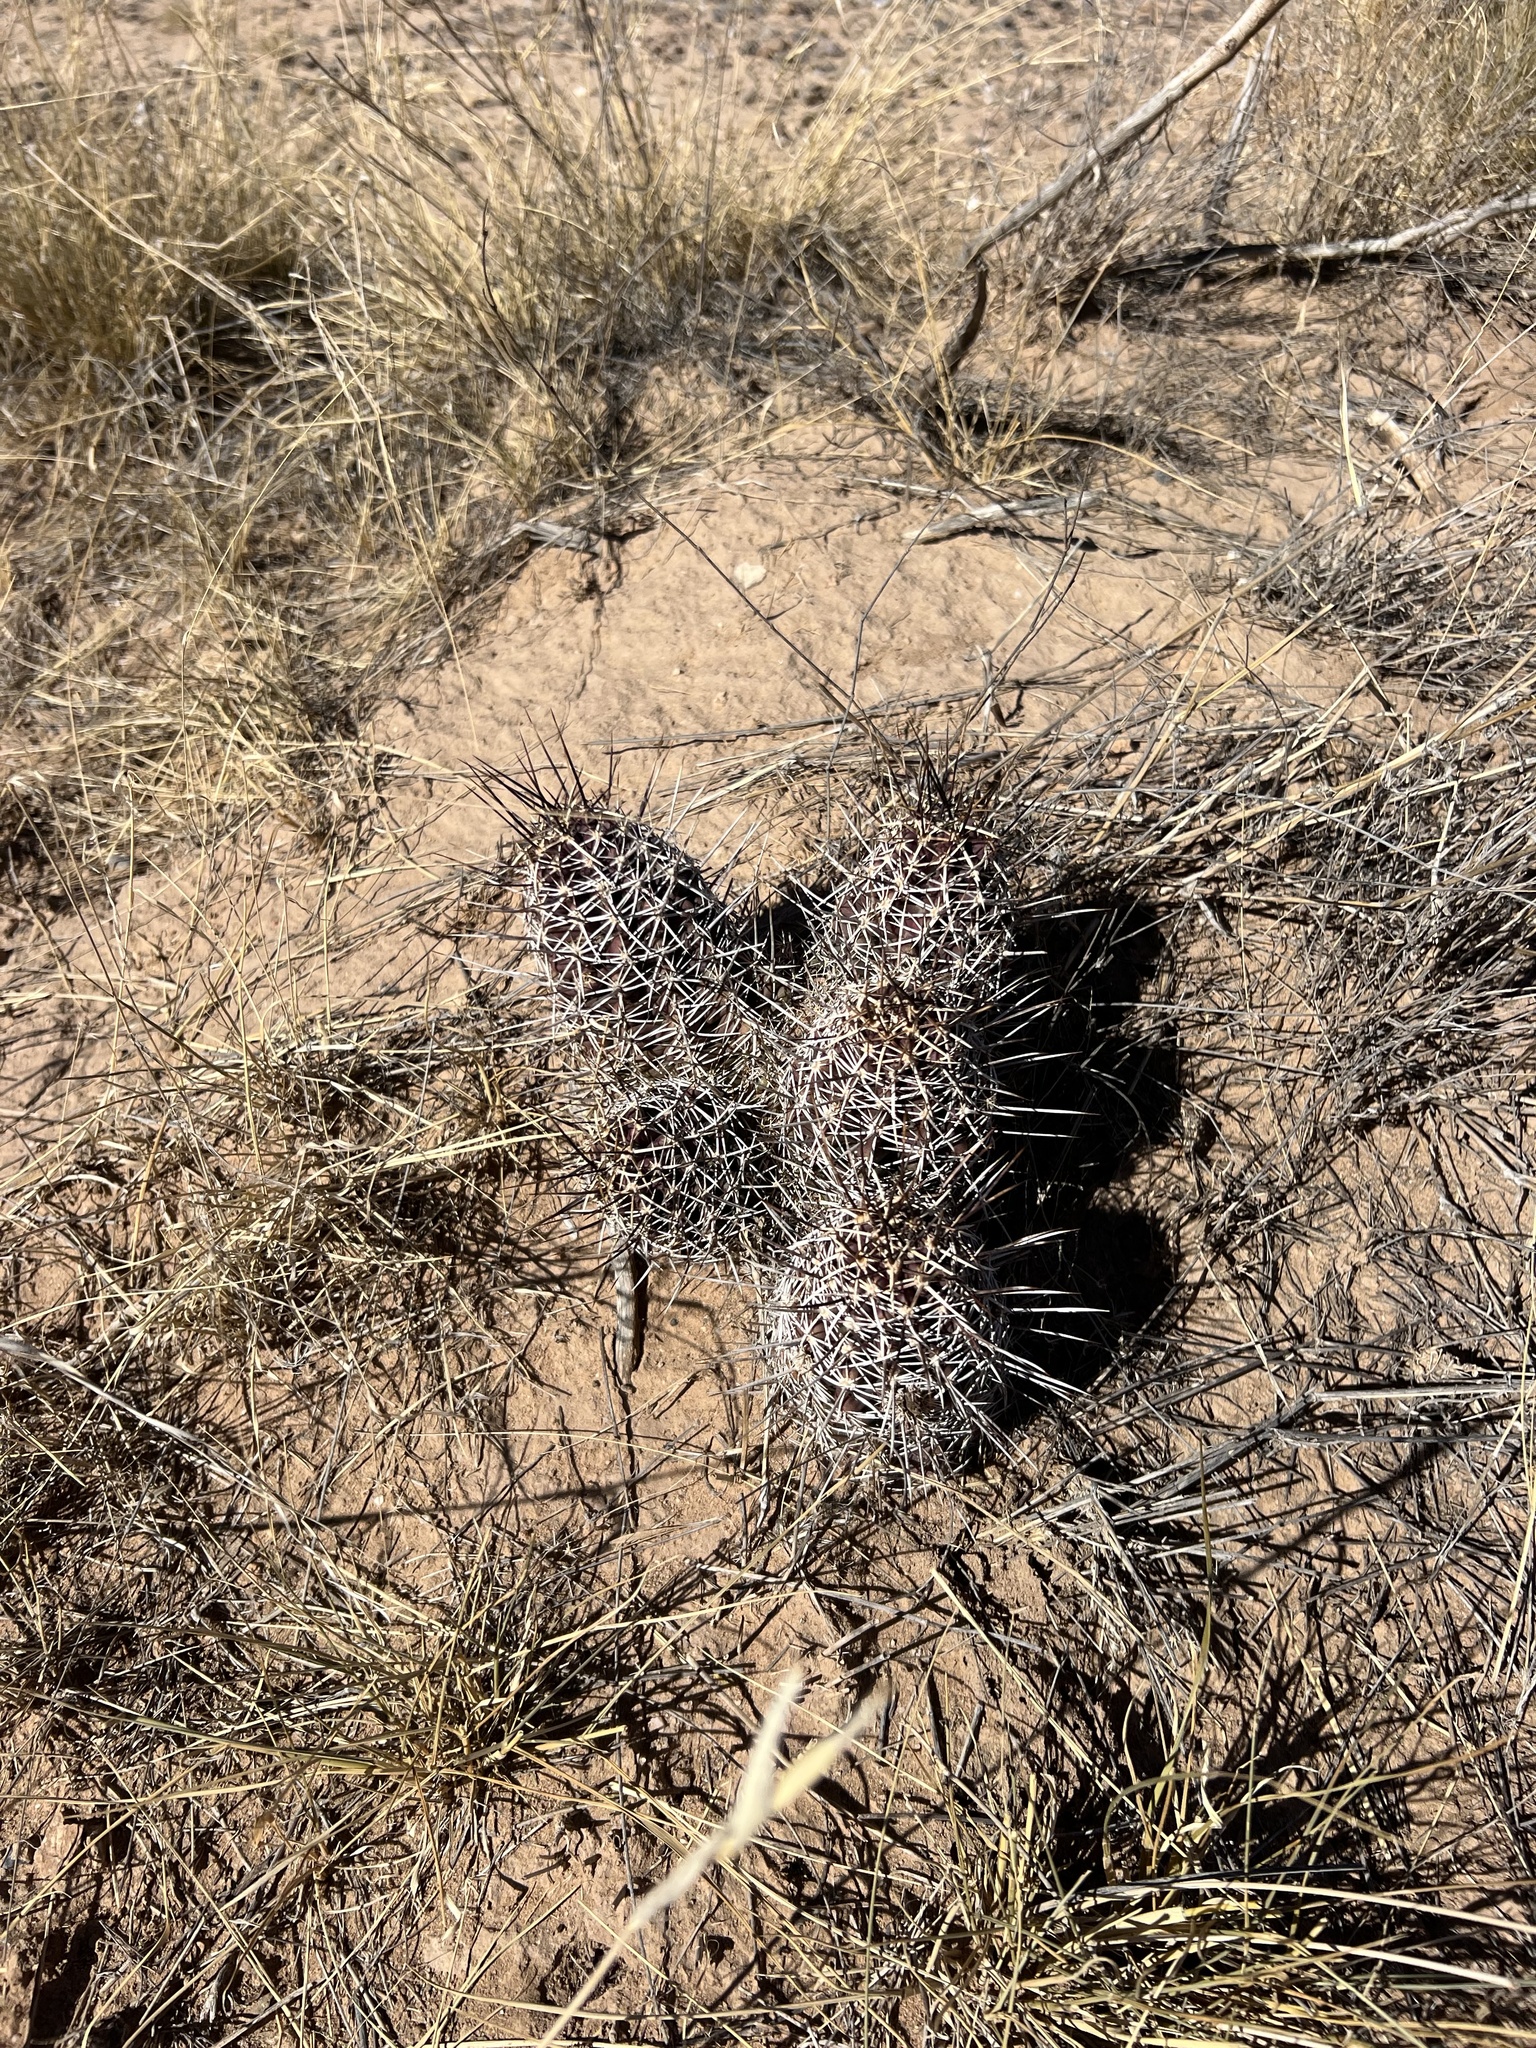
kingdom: Plantae
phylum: Tracheophyta
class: Magnoliopsida
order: Caryophyllales
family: Cactaceae
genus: Echinocereus
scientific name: Echinocereus fendleri
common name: Fendler's hedgehog cactus
